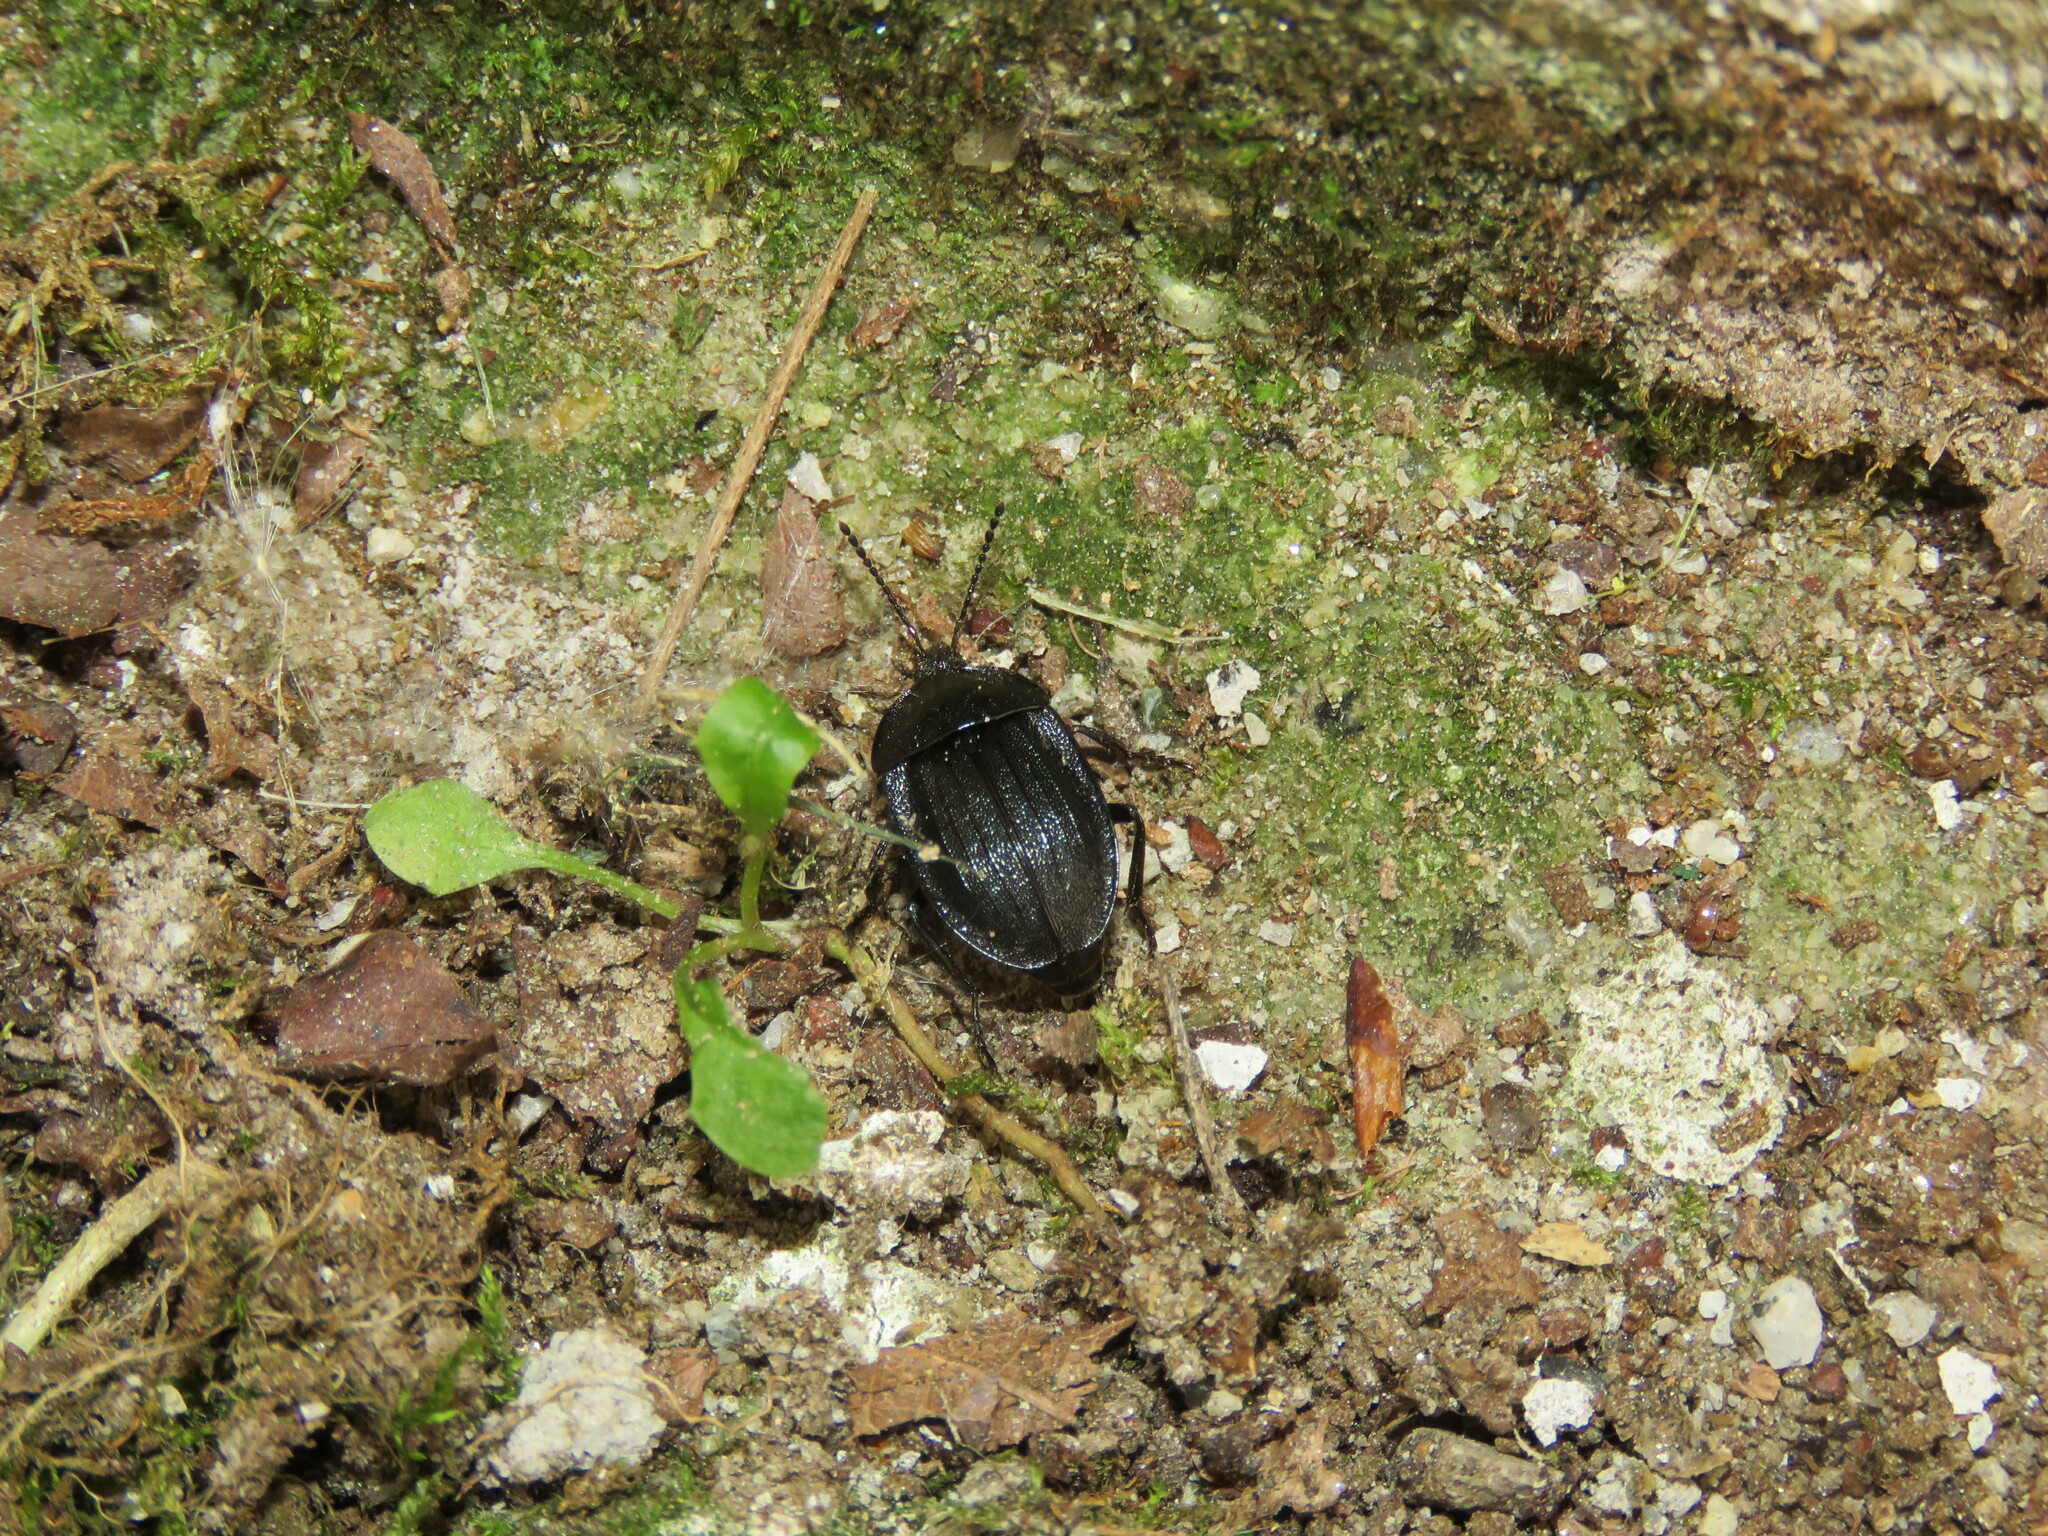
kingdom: Animalia
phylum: Arthropoda
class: Insecta
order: Coleoptera
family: Staphylinidae
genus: Silpha
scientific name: Silpha atrata
